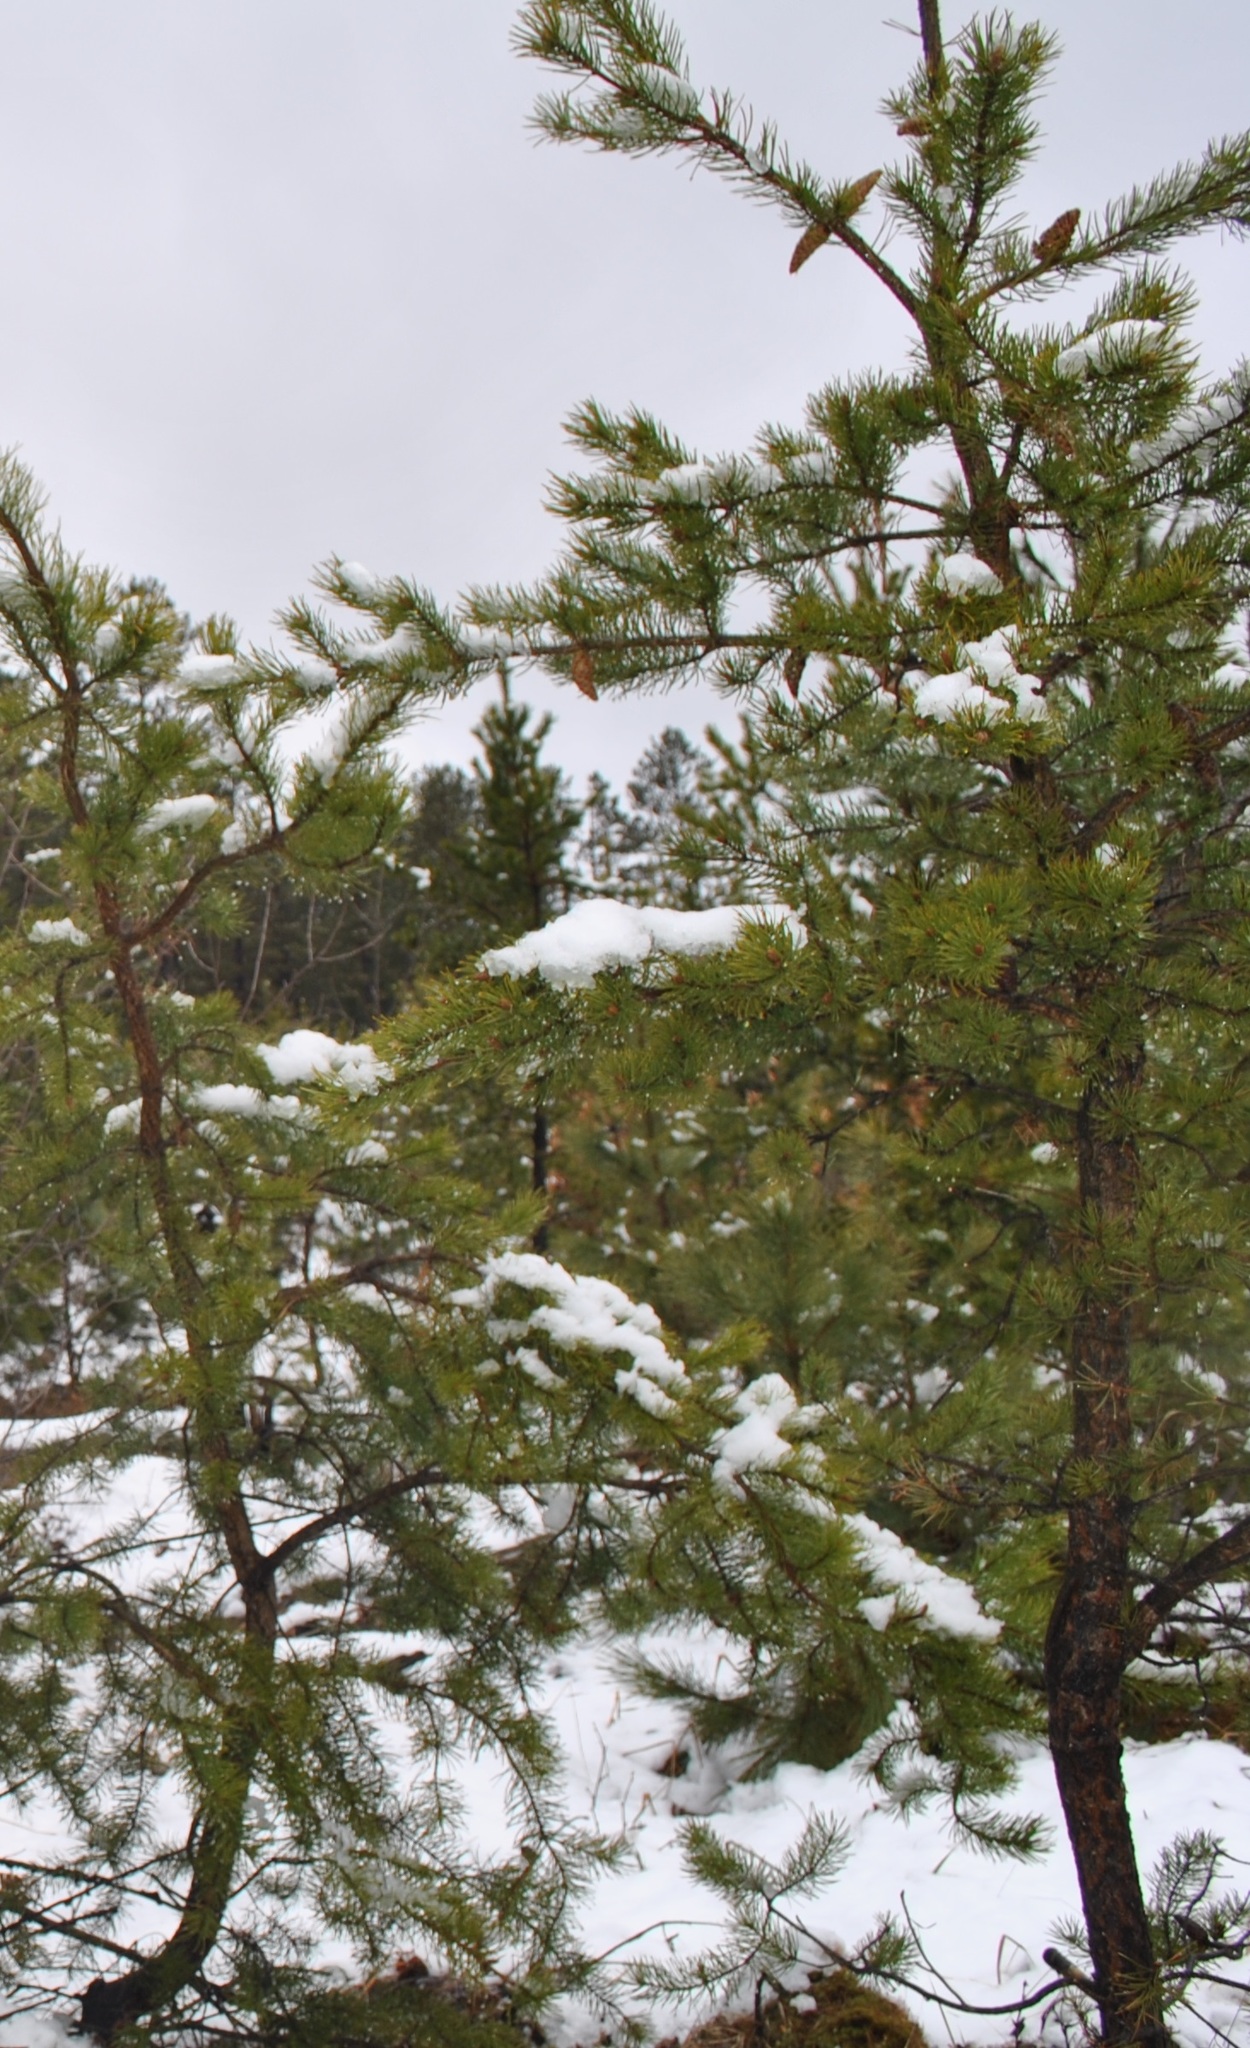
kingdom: Plantae
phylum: Tracheophyta
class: Pinopsida
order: Pinales
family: Pinaceae
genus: Pinus
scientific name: Pinus banksiana
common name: Jack pine
